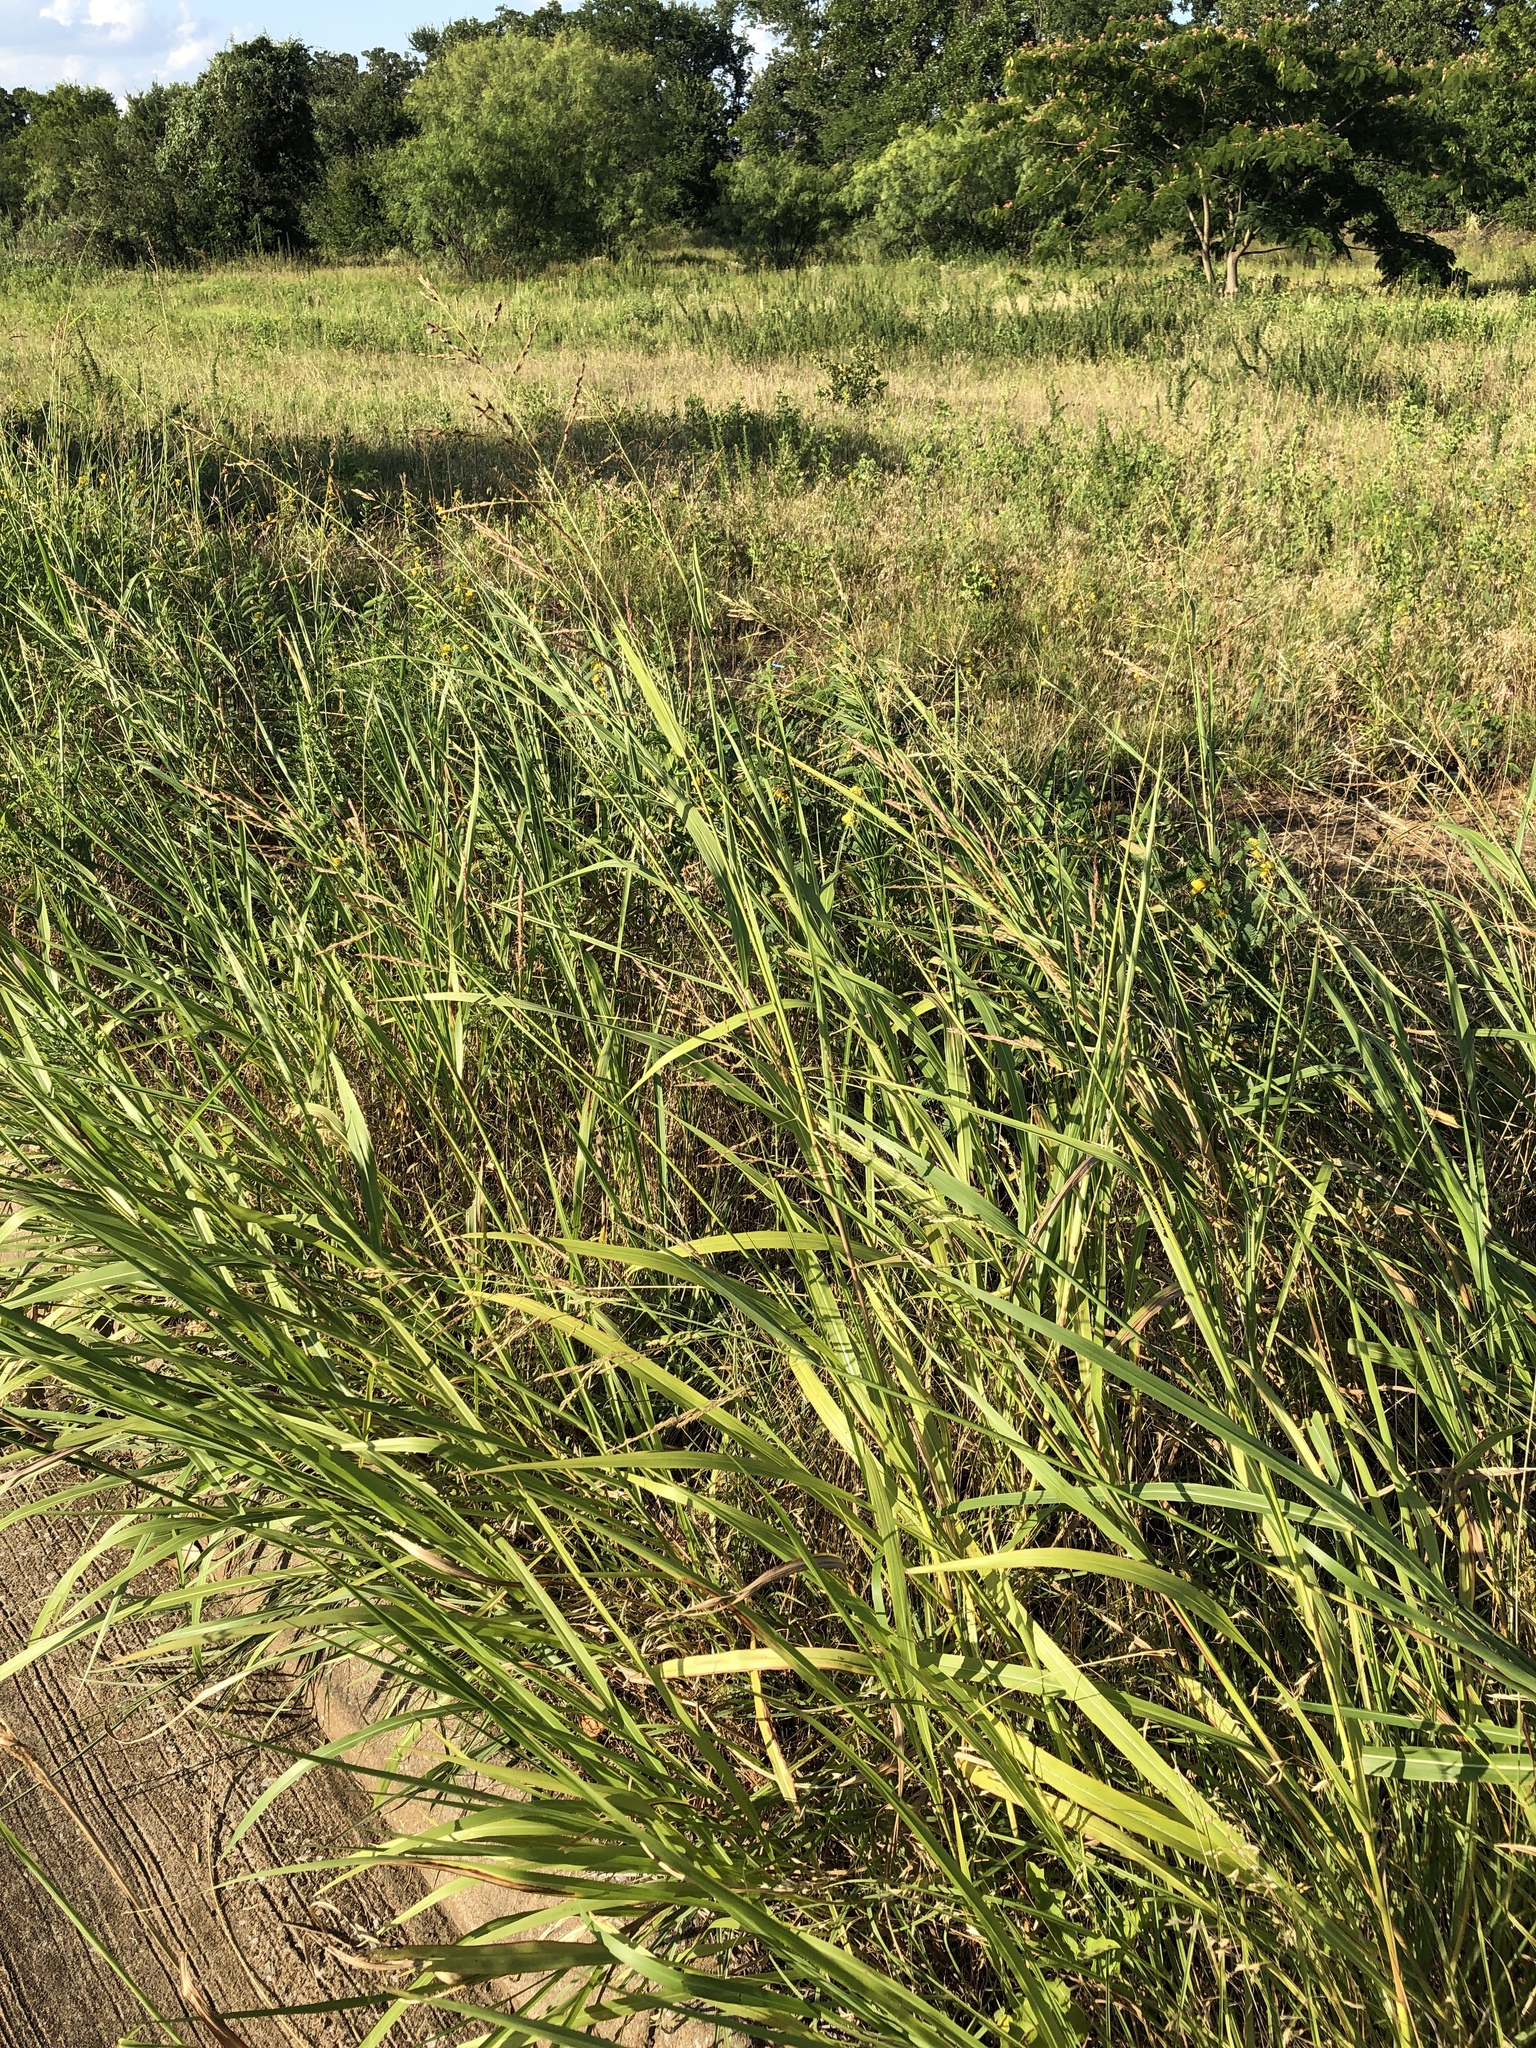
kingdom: Plantae
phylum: Tracheophyta
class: Liliopsida
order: Poales
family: Poaceae
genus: Sorghum
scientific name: Sorghum halepense
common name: Johnson-grass
